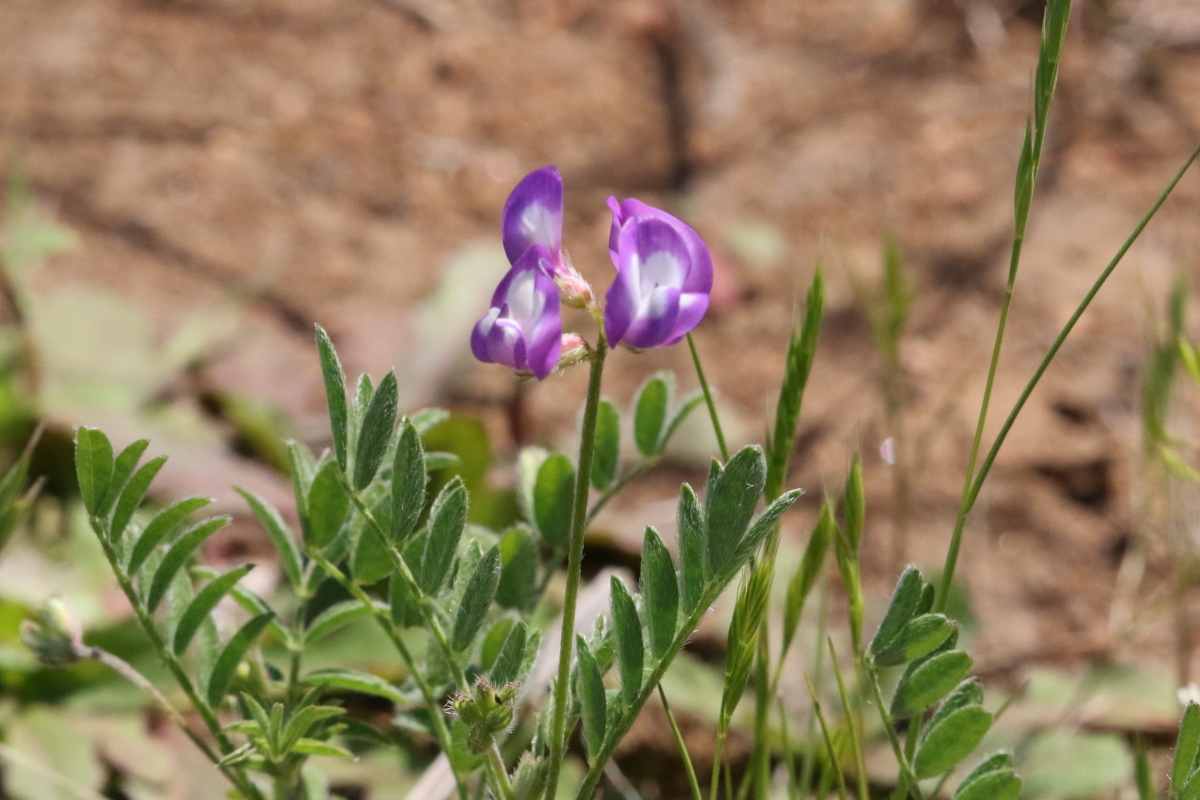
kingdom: Plantae
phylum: Tracheophyta
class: Magnoliopsida
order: Fabales
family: Fabaceae
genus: Astragalus
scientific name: Astragalus nuttallianus
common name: Smallflowered milkvetch
